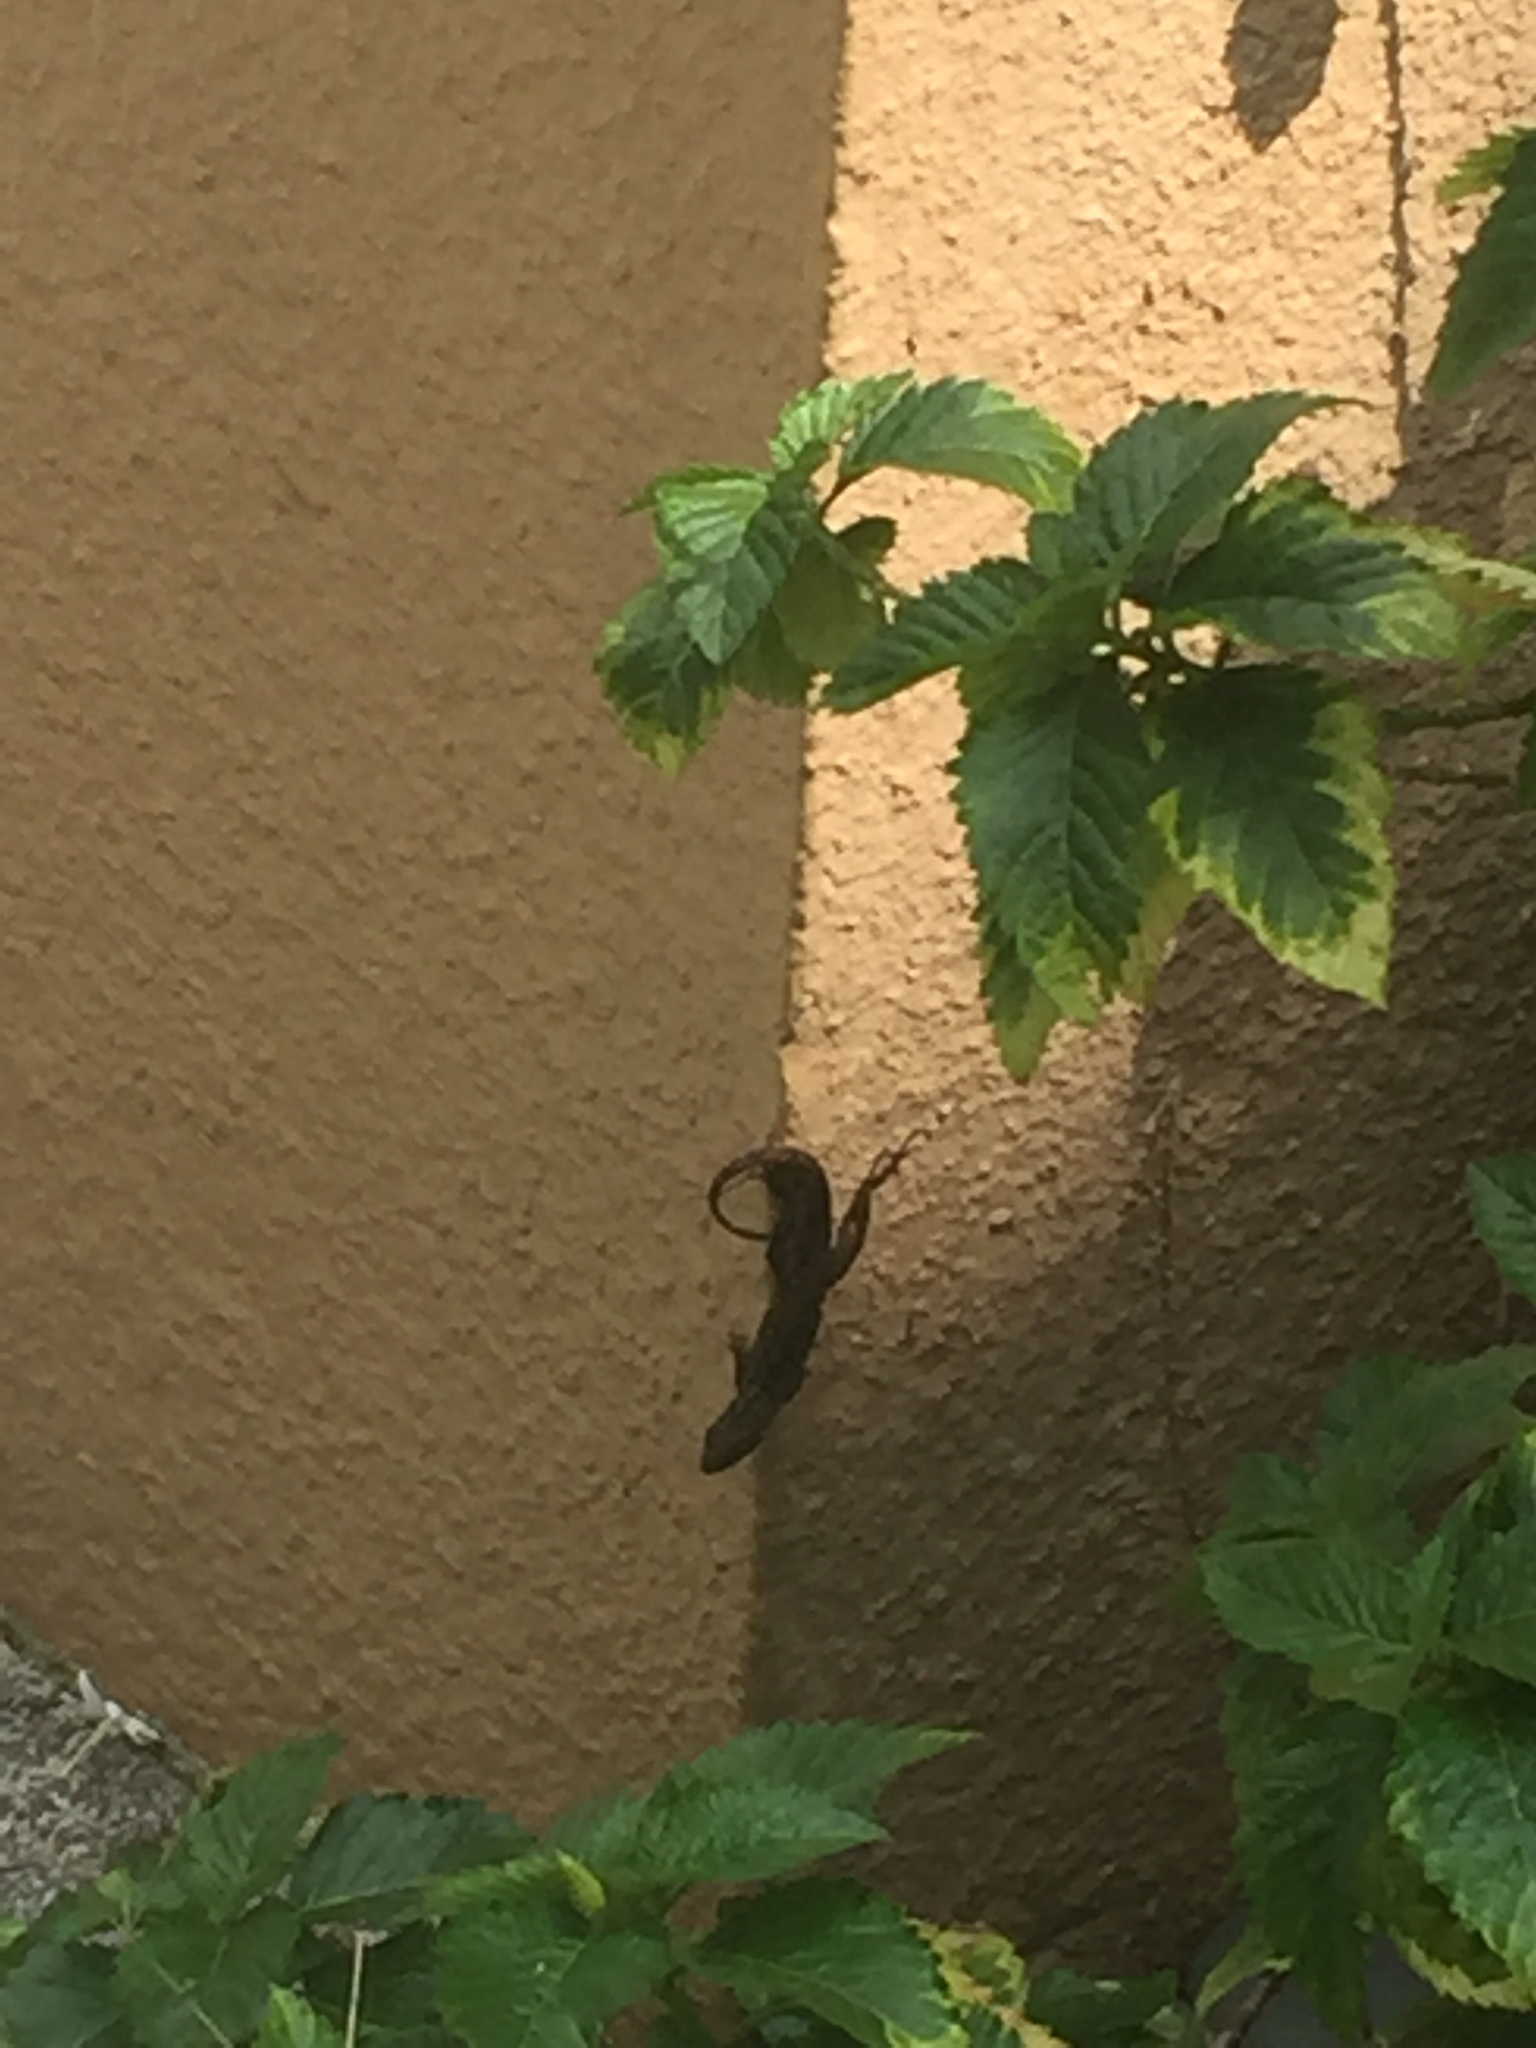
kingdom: Animalia
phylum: Chordata
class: Squamata
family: Dactyloidae
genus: Anolis
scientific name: Anolis sagrei
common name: Brown anole
